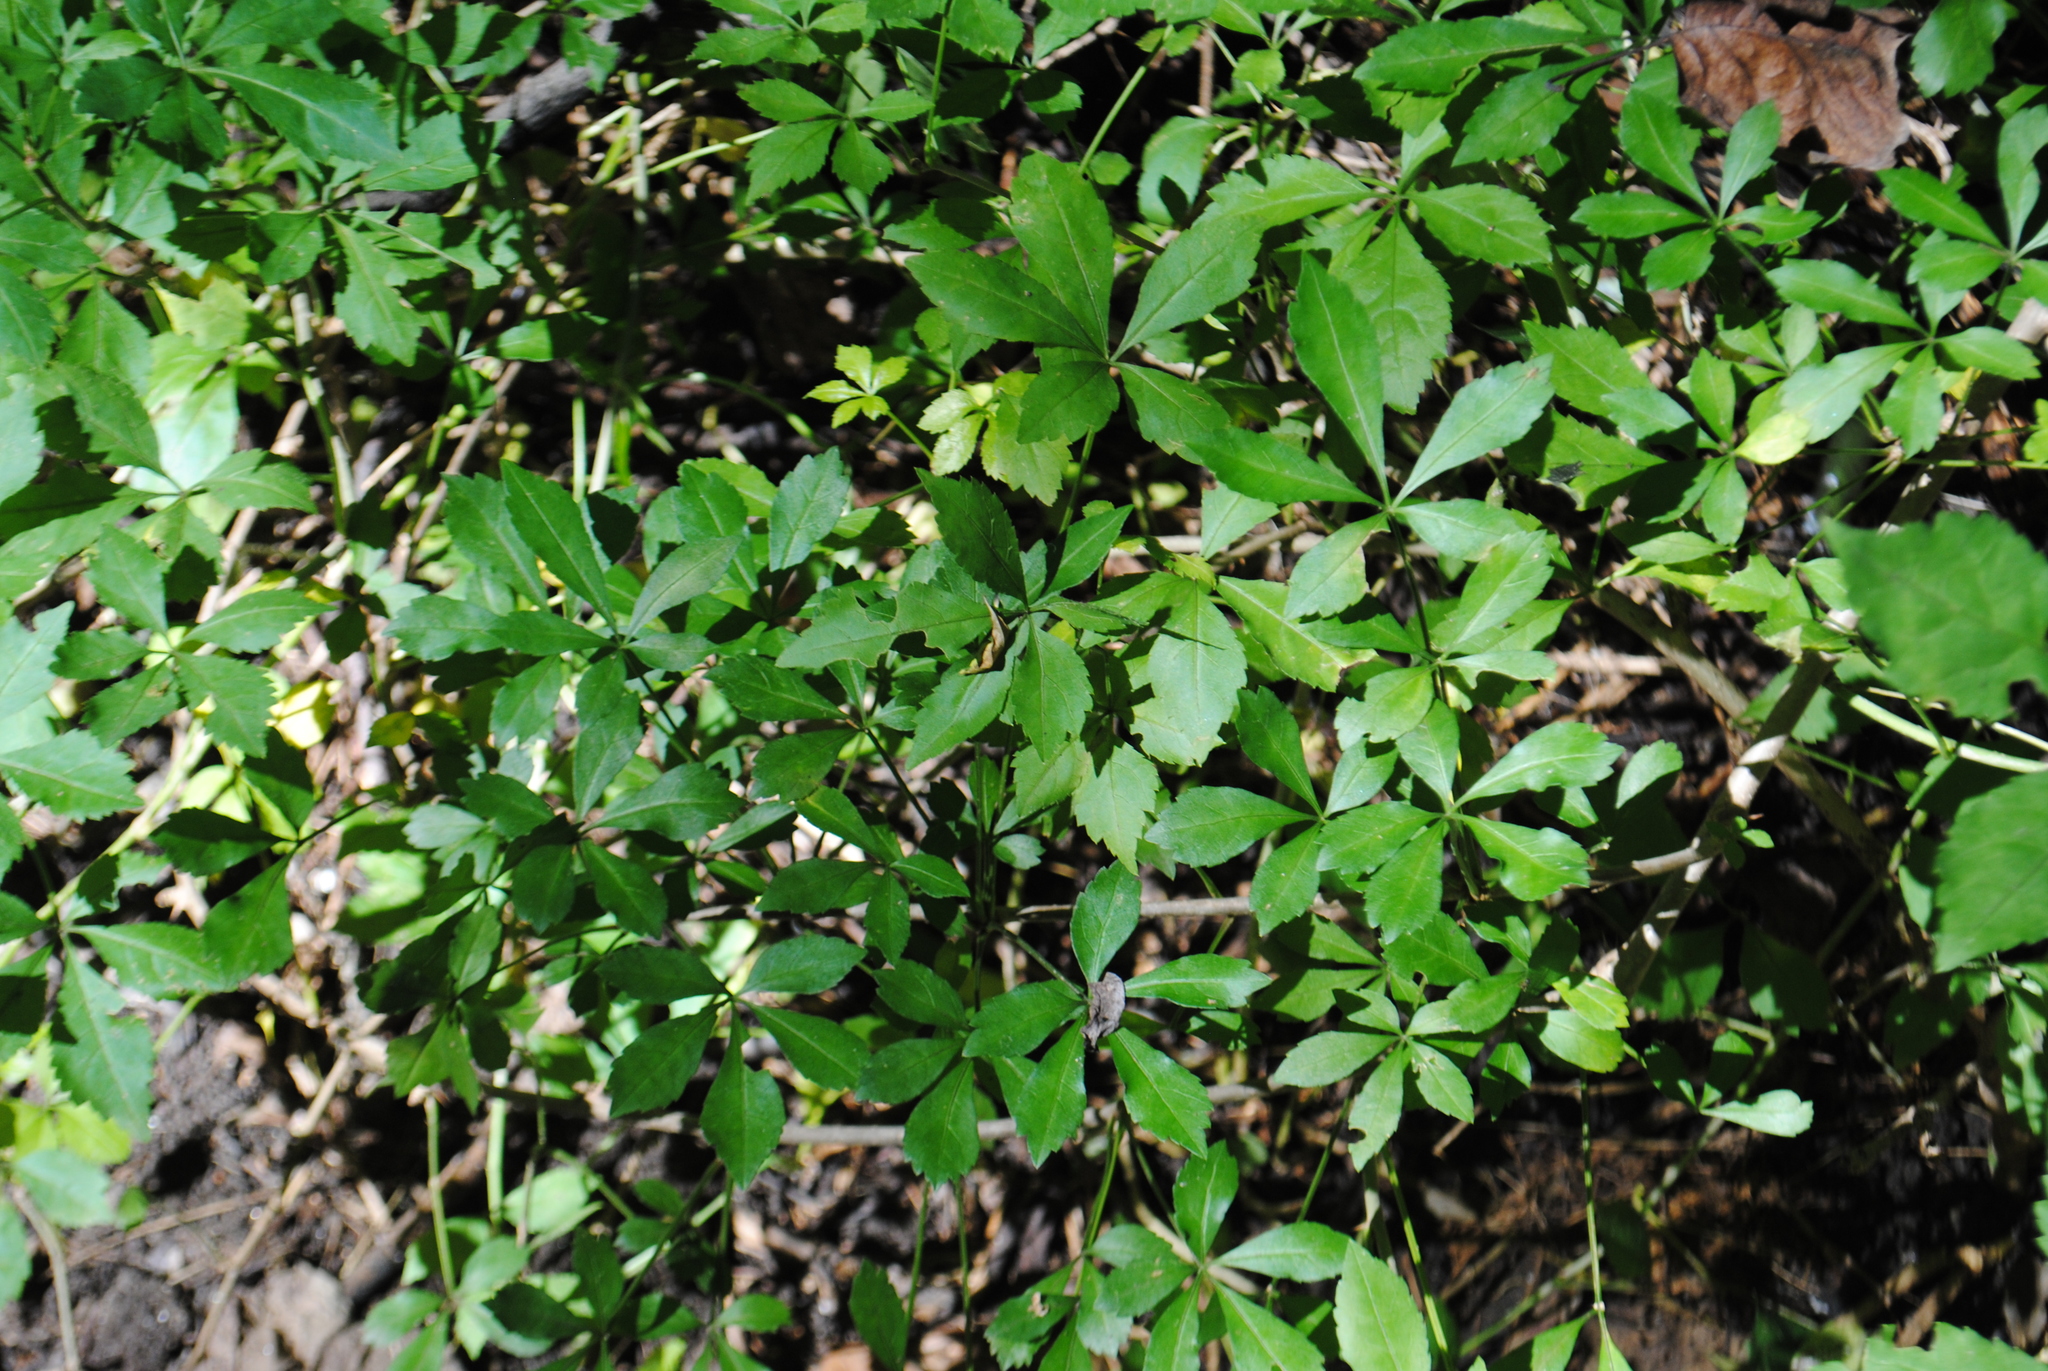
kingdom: Plantae
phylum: Tracheophyta
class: Magnoliopsida
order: Apiales
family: Araliaceae
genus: Eleutherococcus
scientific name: Eleutherococcus sieboldianus
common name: Ginseng
